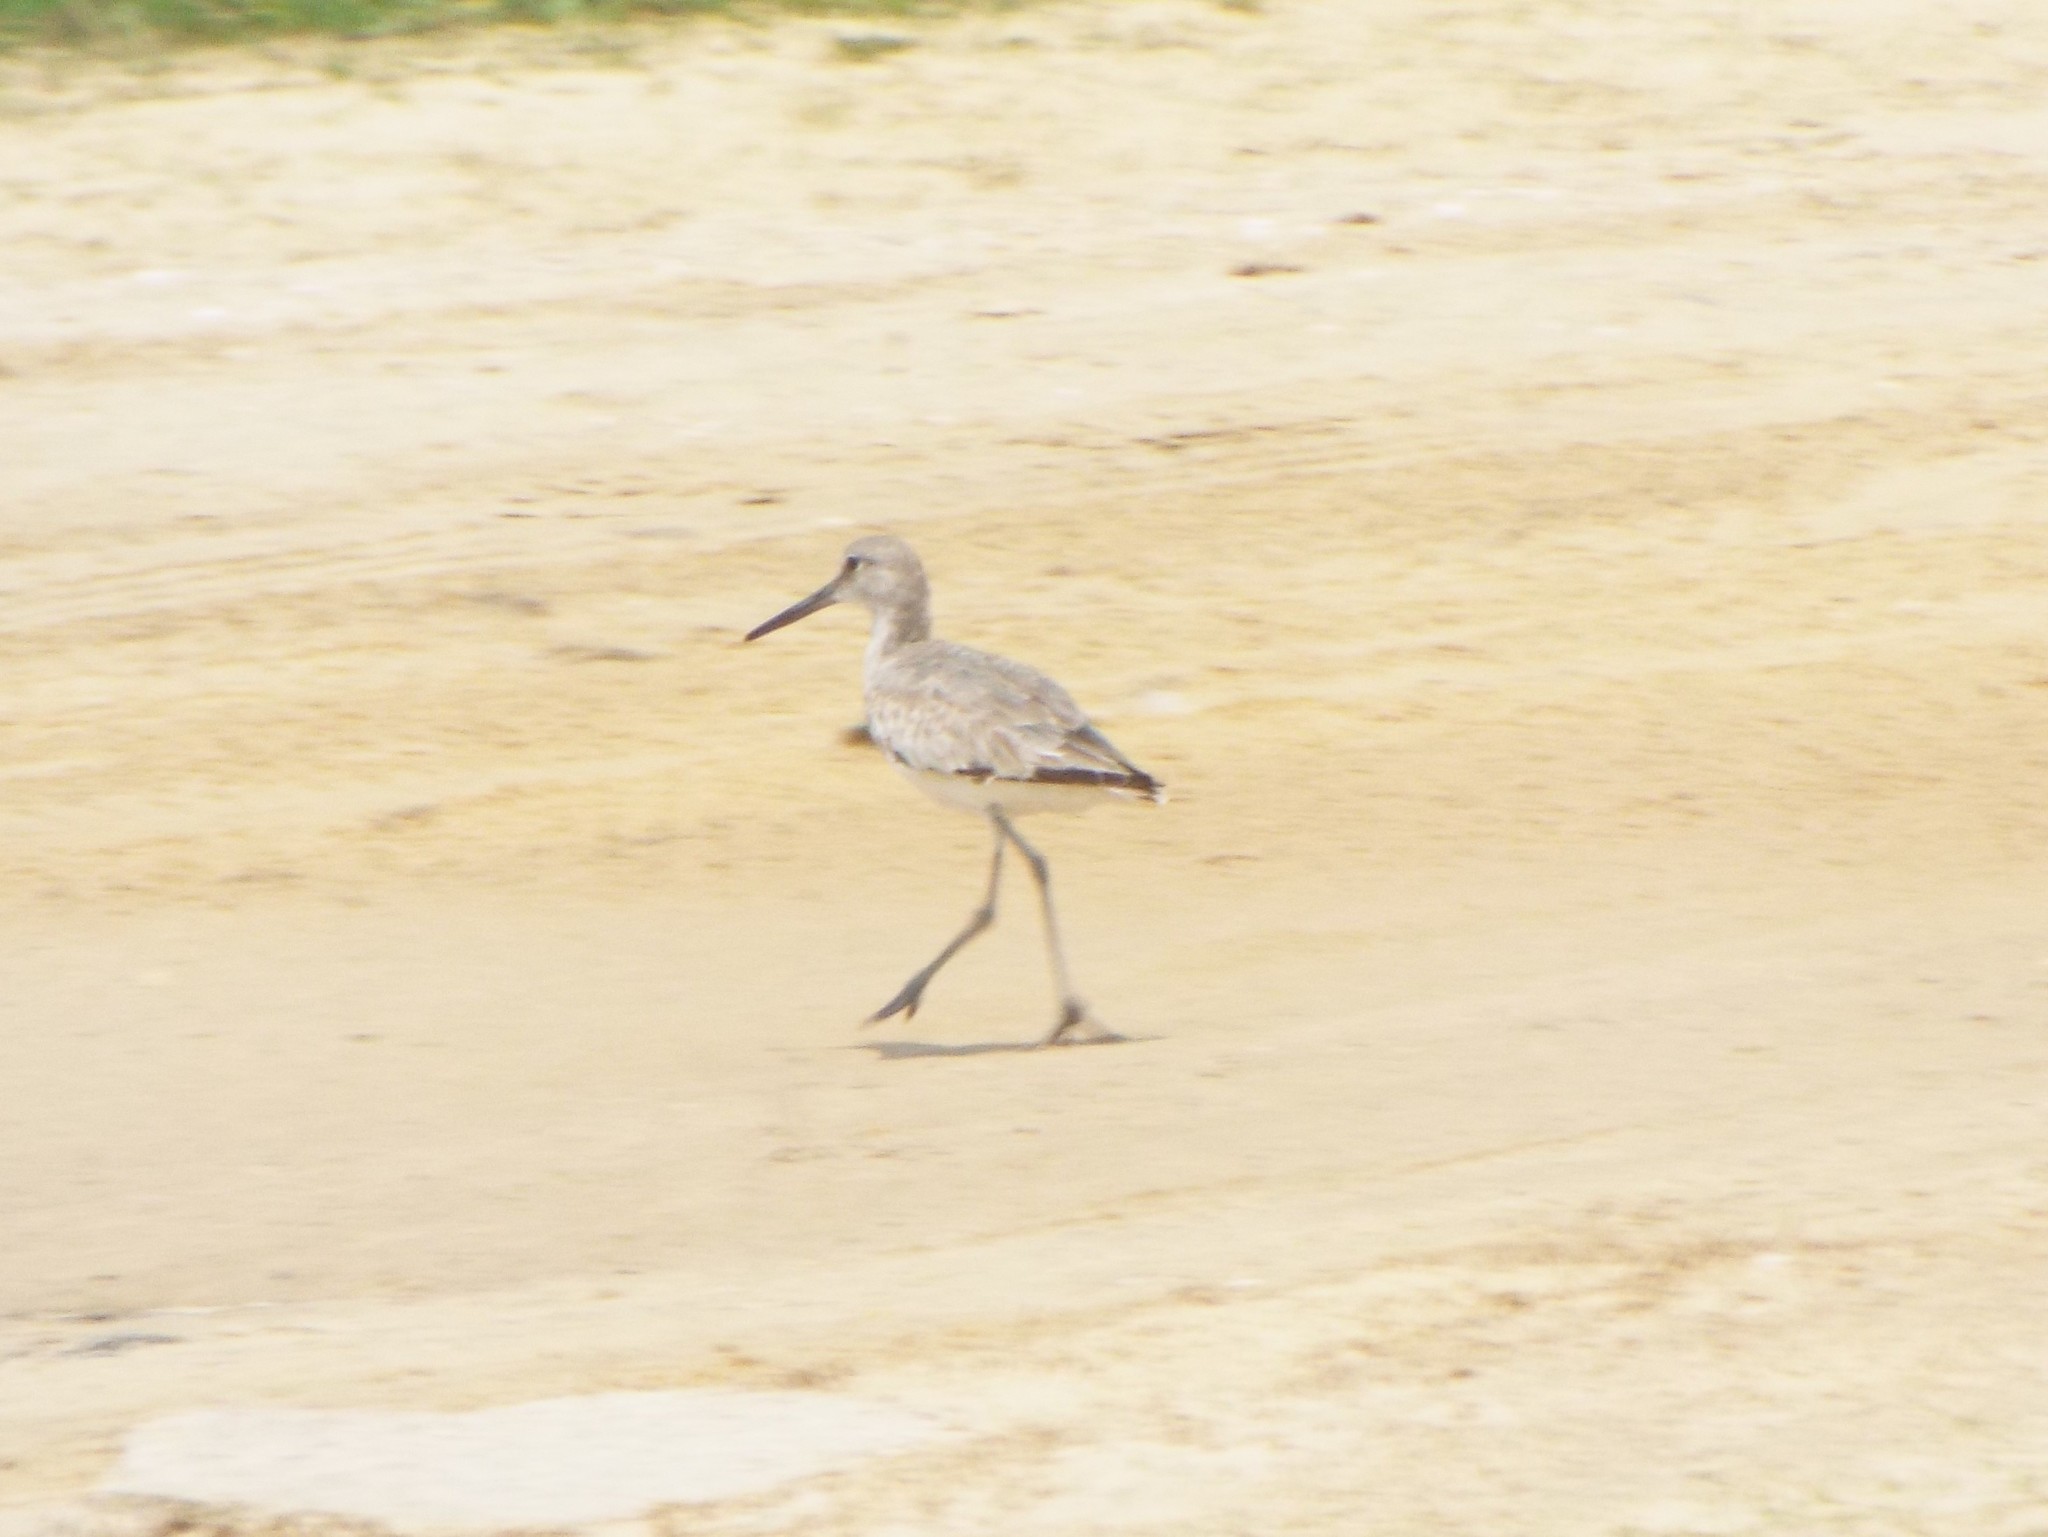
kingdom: Animalia
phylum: Chordata
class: Aves
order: Charadriiformes
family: Scolopacidae
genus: Tringa
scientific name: Tringa semipalmata
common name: Willet
